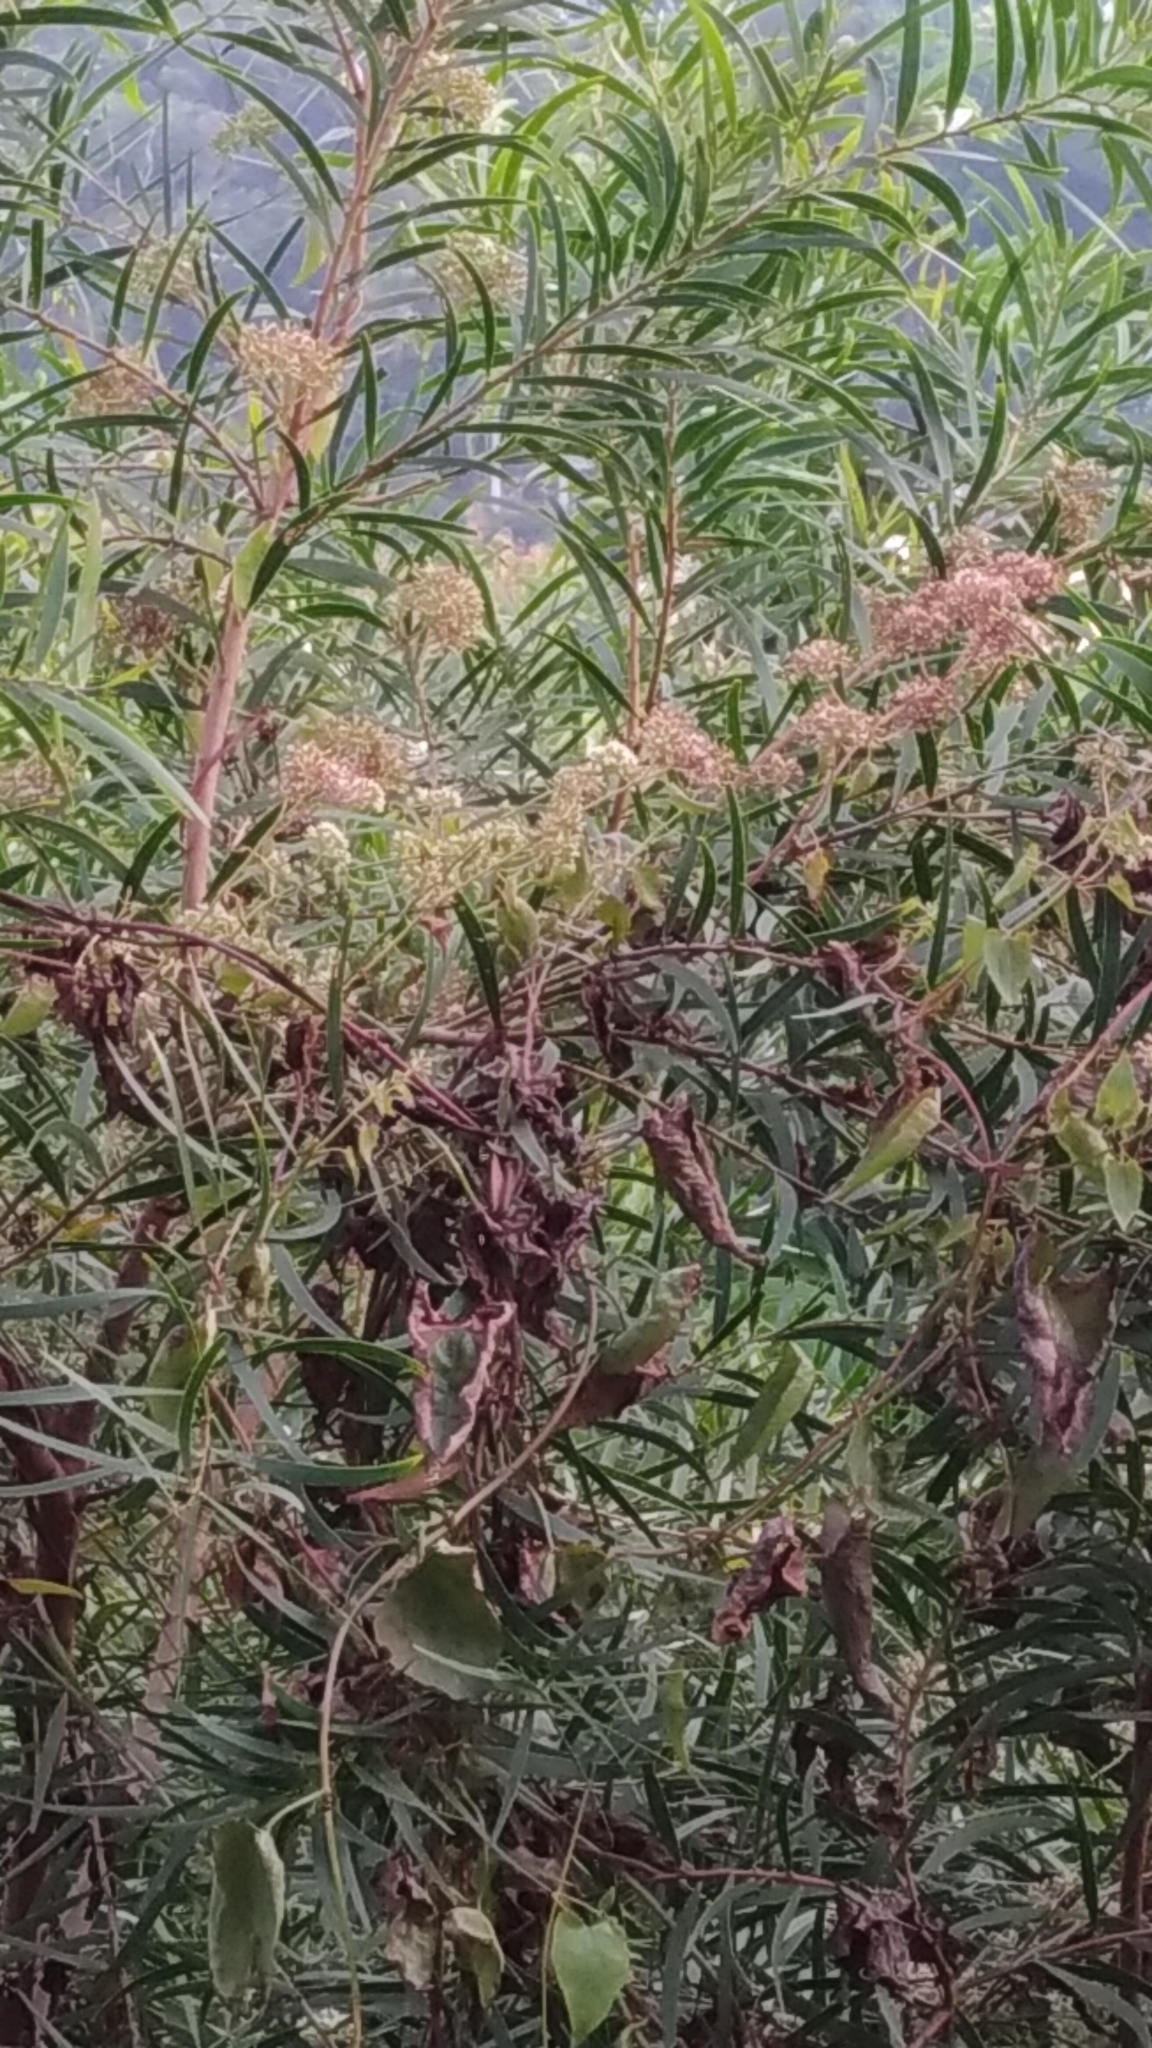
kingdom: Plantae
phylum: Tracheophyta
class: Magnoliopsida
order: Asterales
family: Asteraceae
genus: Mikania
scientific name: Mikania micrantha
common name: Mile-a-minute
